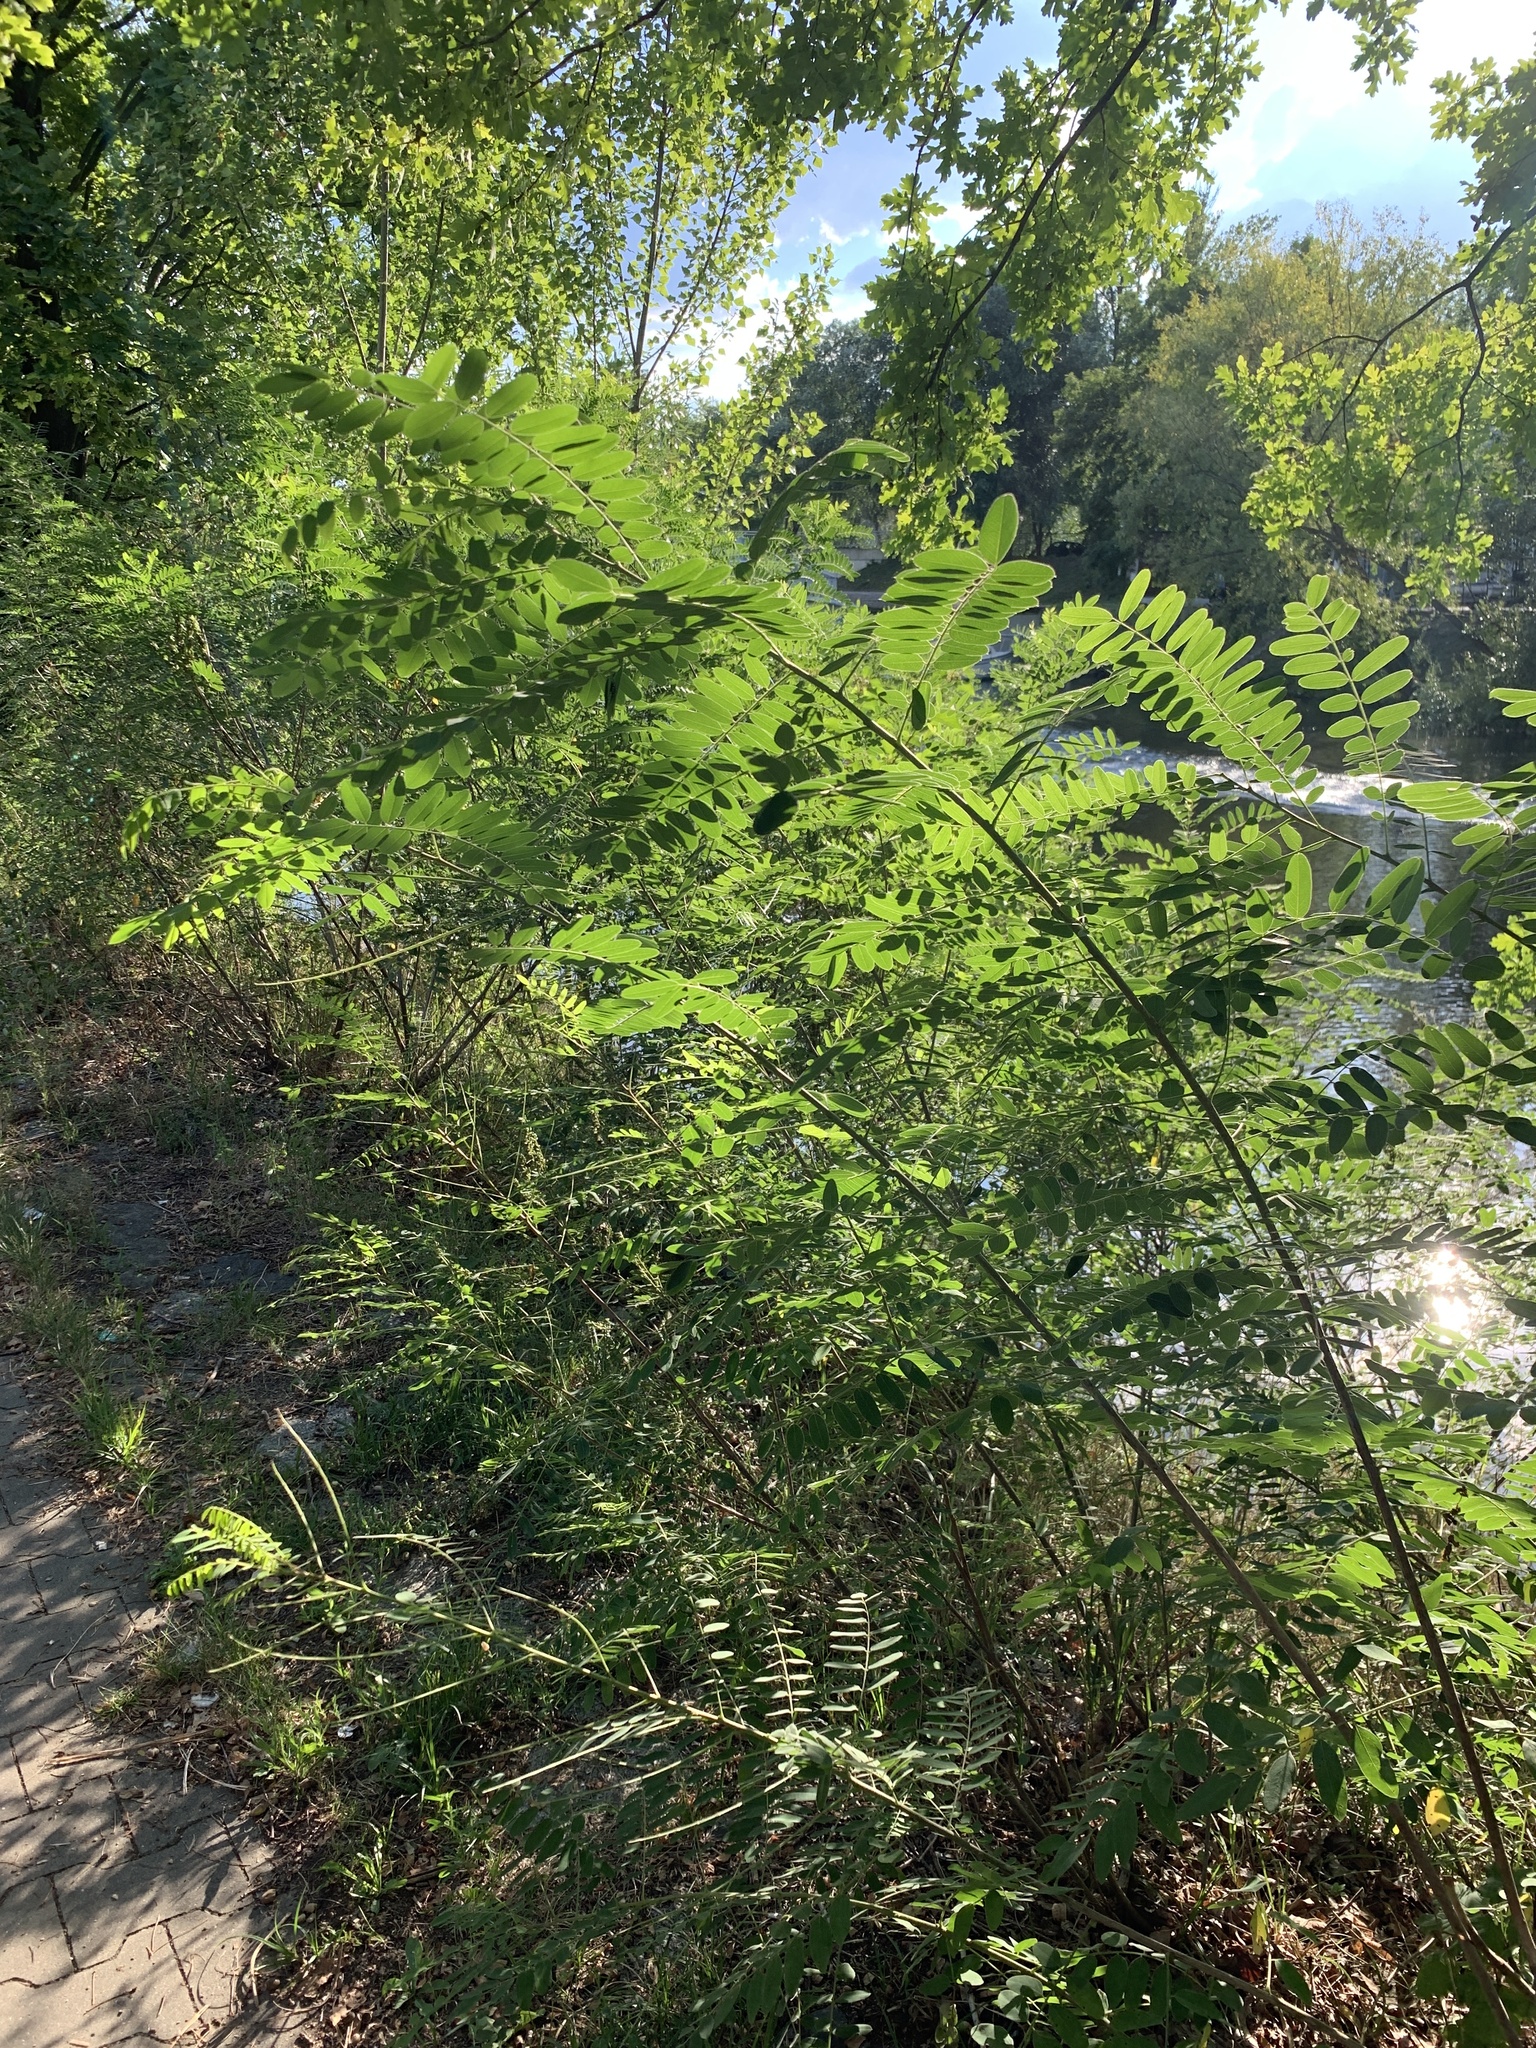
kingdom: Plantae
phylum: Tracheophyta
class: Magnoliopsida
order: Fabales
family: Fabaceae
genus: Amorpha
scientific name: Amorpha fruticosa
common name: False indigo
